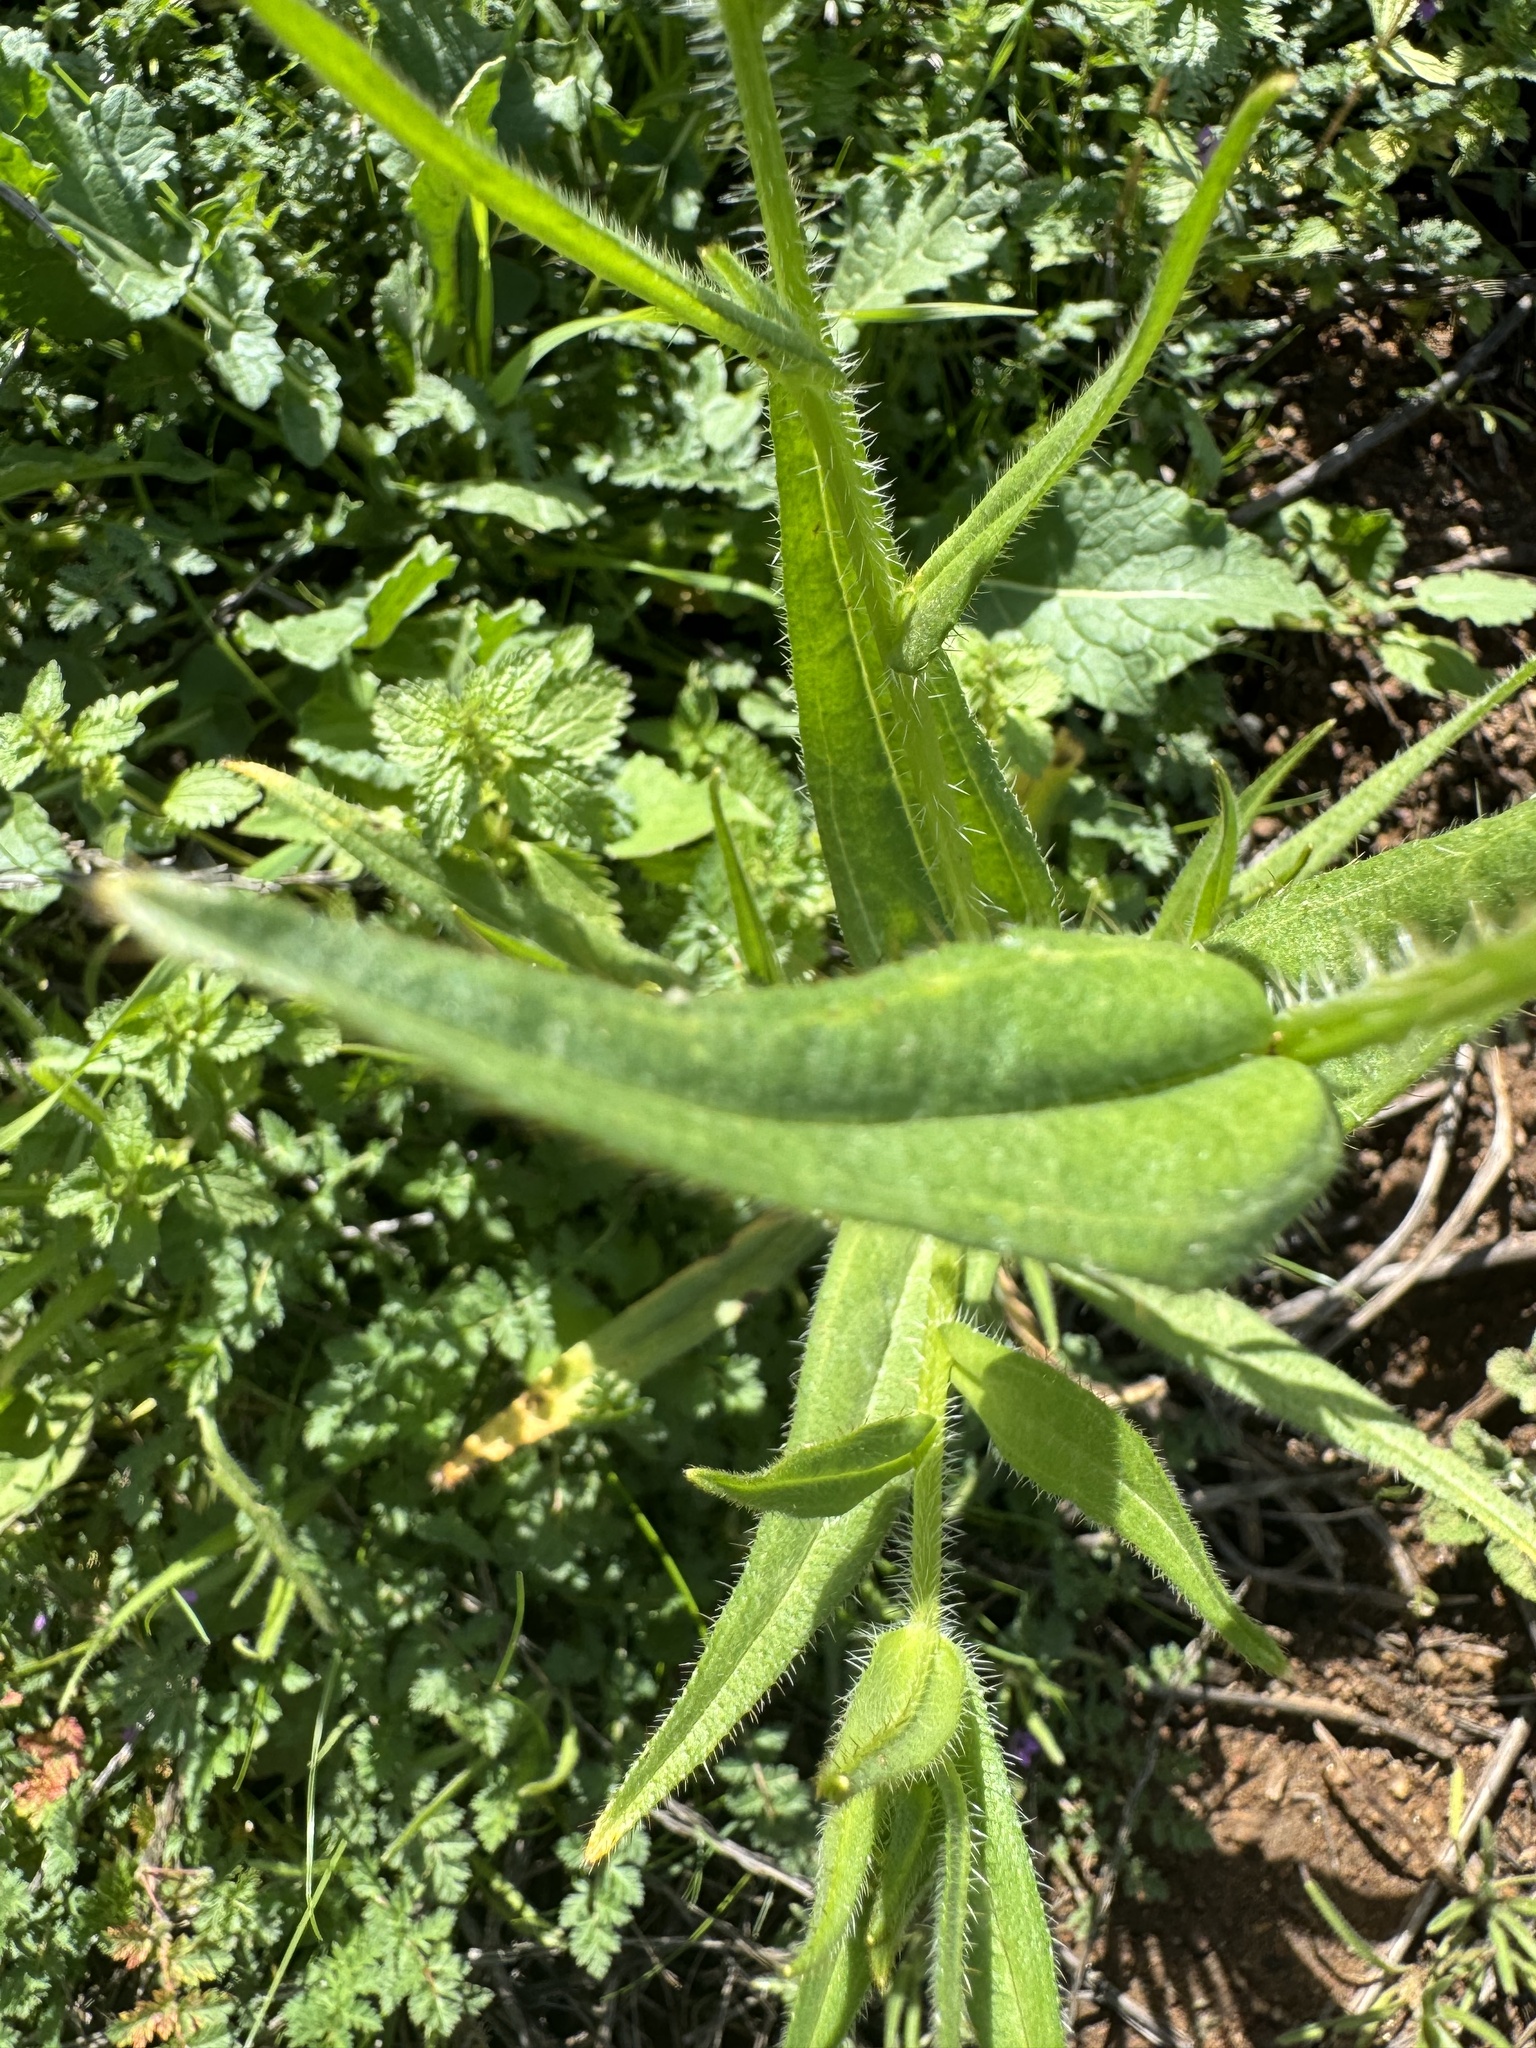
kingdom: Plantae
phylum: Tracheophyta
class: Magnoliopsida
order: Boraginales
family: Boraginaceae
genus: Amsinckia
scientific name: Amsinckia menziesii
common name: Menzies' fiddleneck
